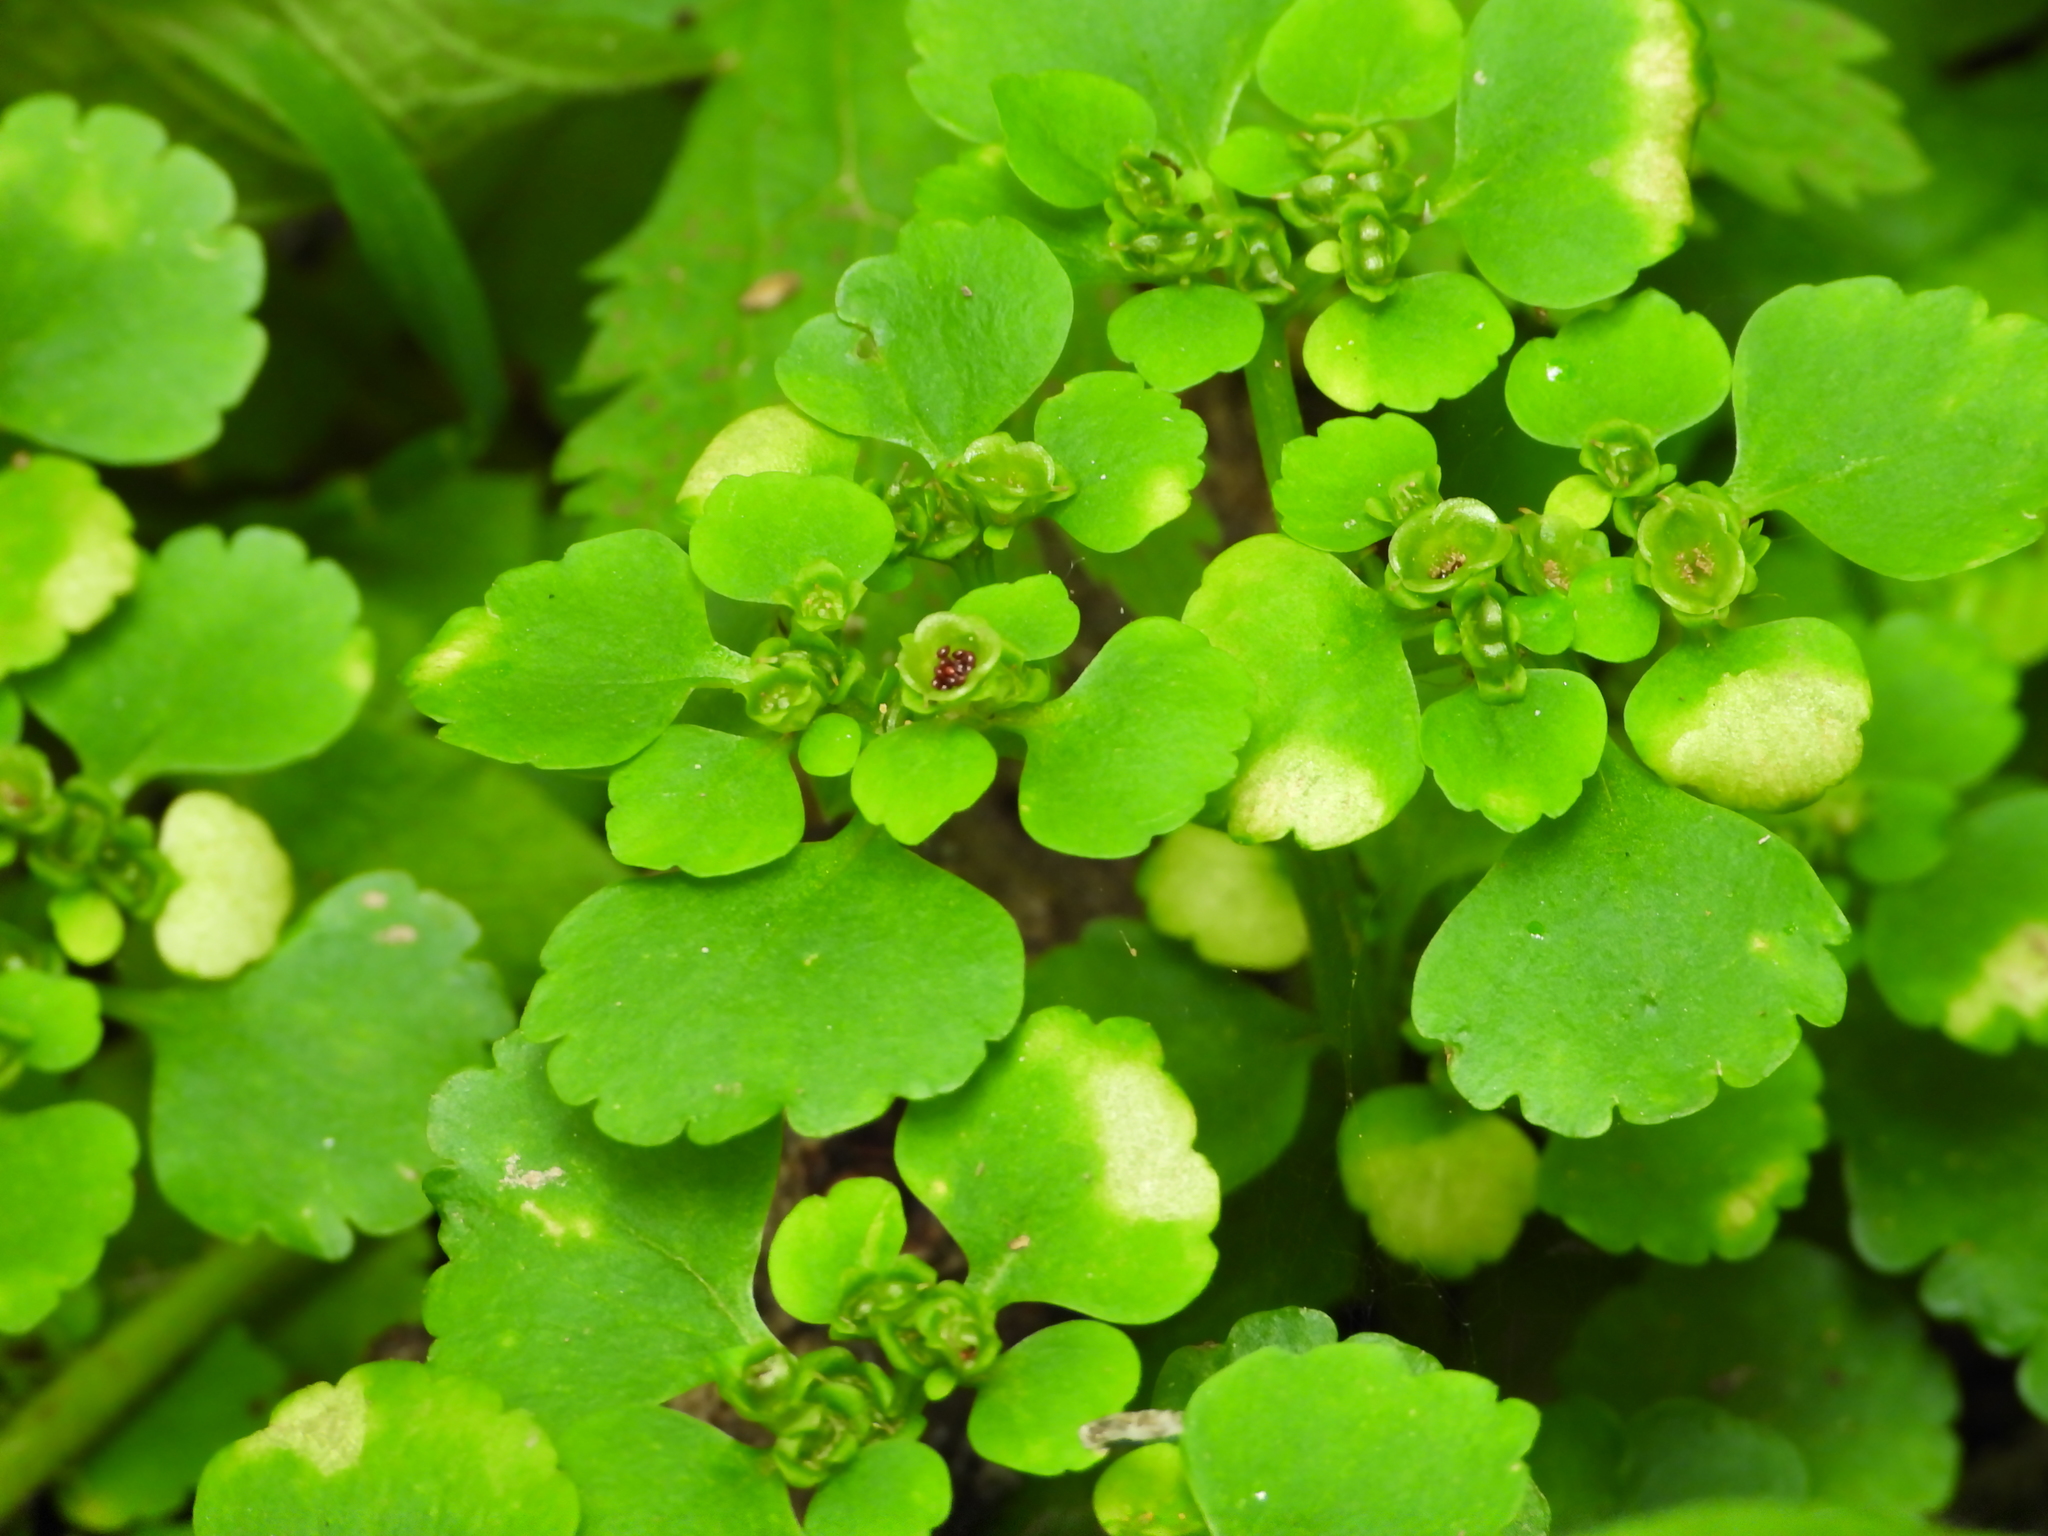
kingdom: Plantae
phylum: Tracheophyta
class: Magnoliopsida
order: Saxifragales
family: Saxifragaceae
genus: Chrysosplenium
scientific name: Chrysosplenium alternifolium
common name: Alternate-leaved golden-saxifrage
